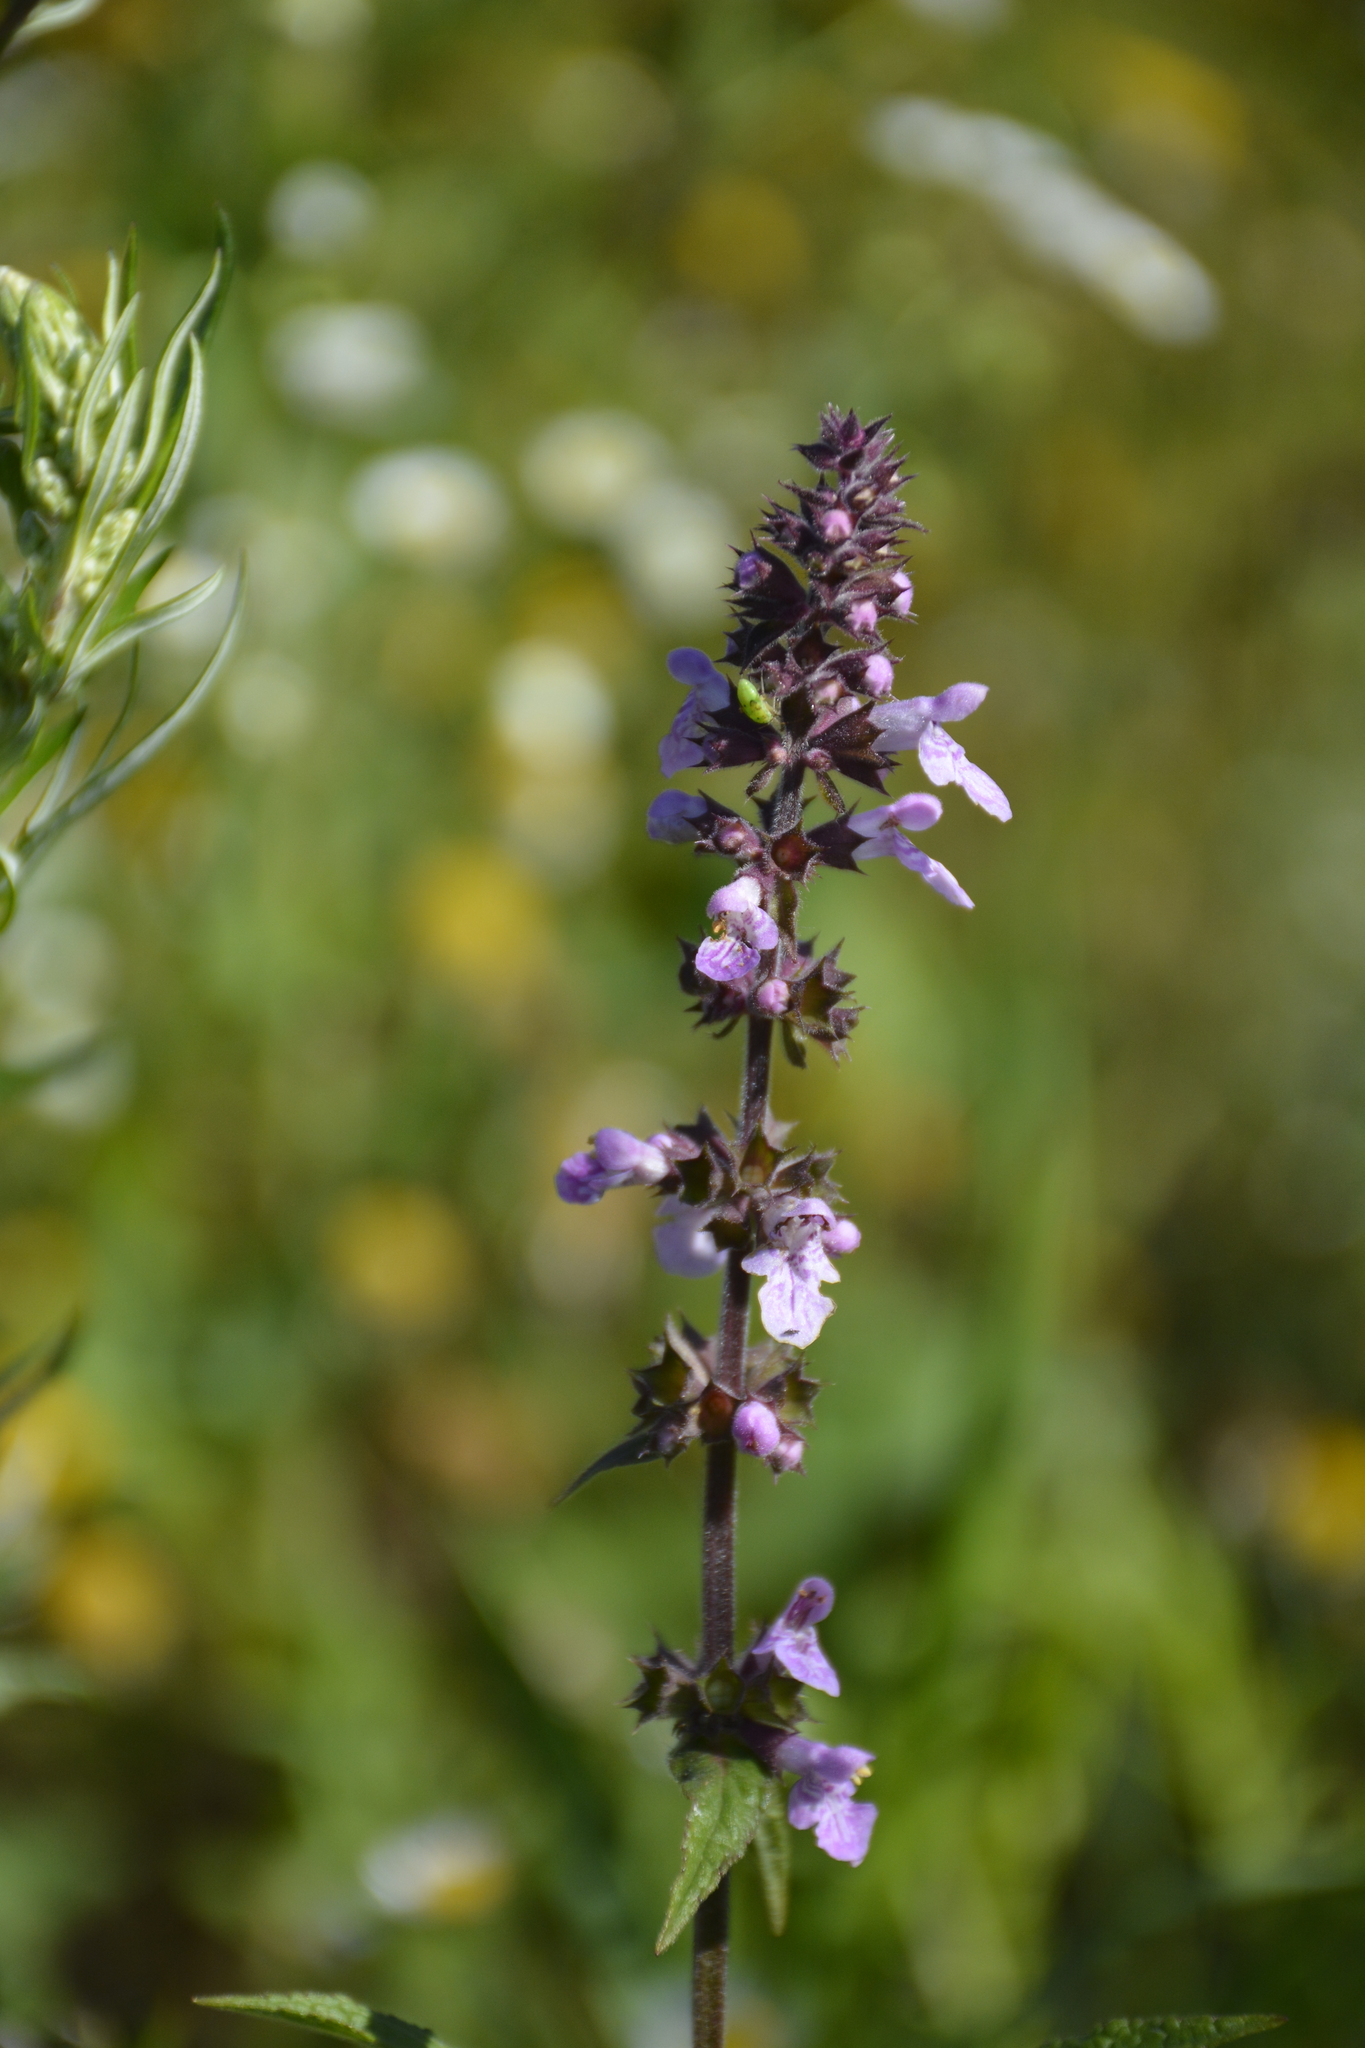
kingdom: Plantae
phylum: Tracheophyta
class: Magnoliopsida
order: Lamiales
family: Lamiaceae
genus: Stachys
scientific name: Stachys palustris
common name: Marsh woundwort
